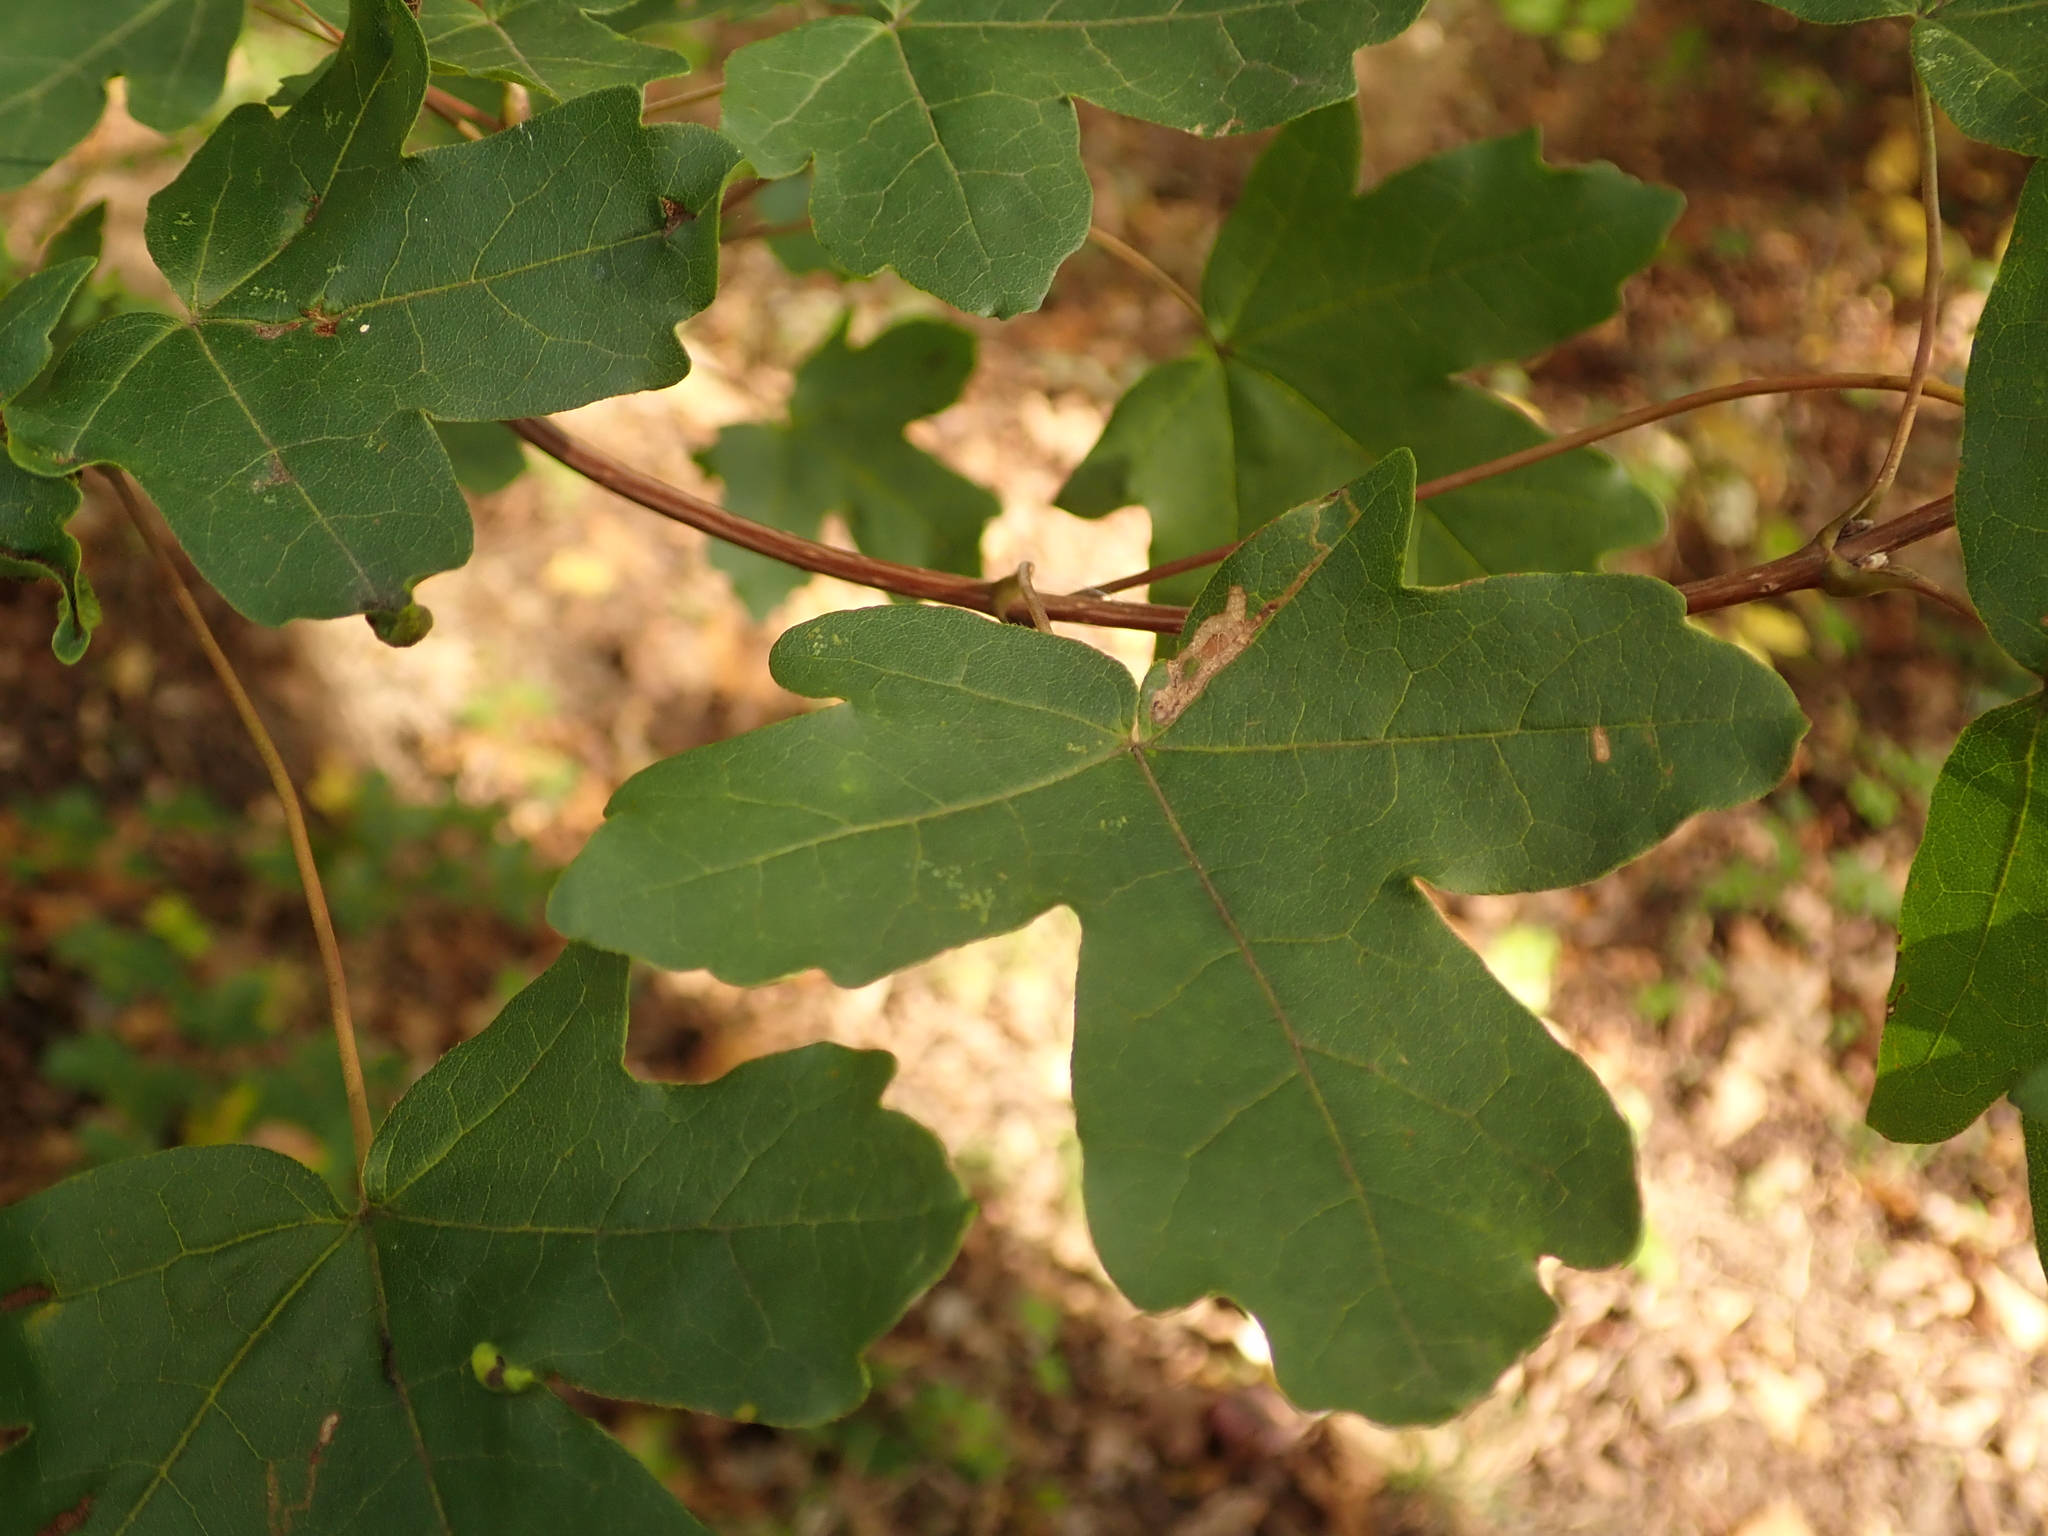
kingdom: Plantae
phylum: Tracheophyta
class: Magnoliopsida
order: Sapindales
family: Sapindaceae
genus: Acer
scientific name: Acer campestre
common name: Field maple
